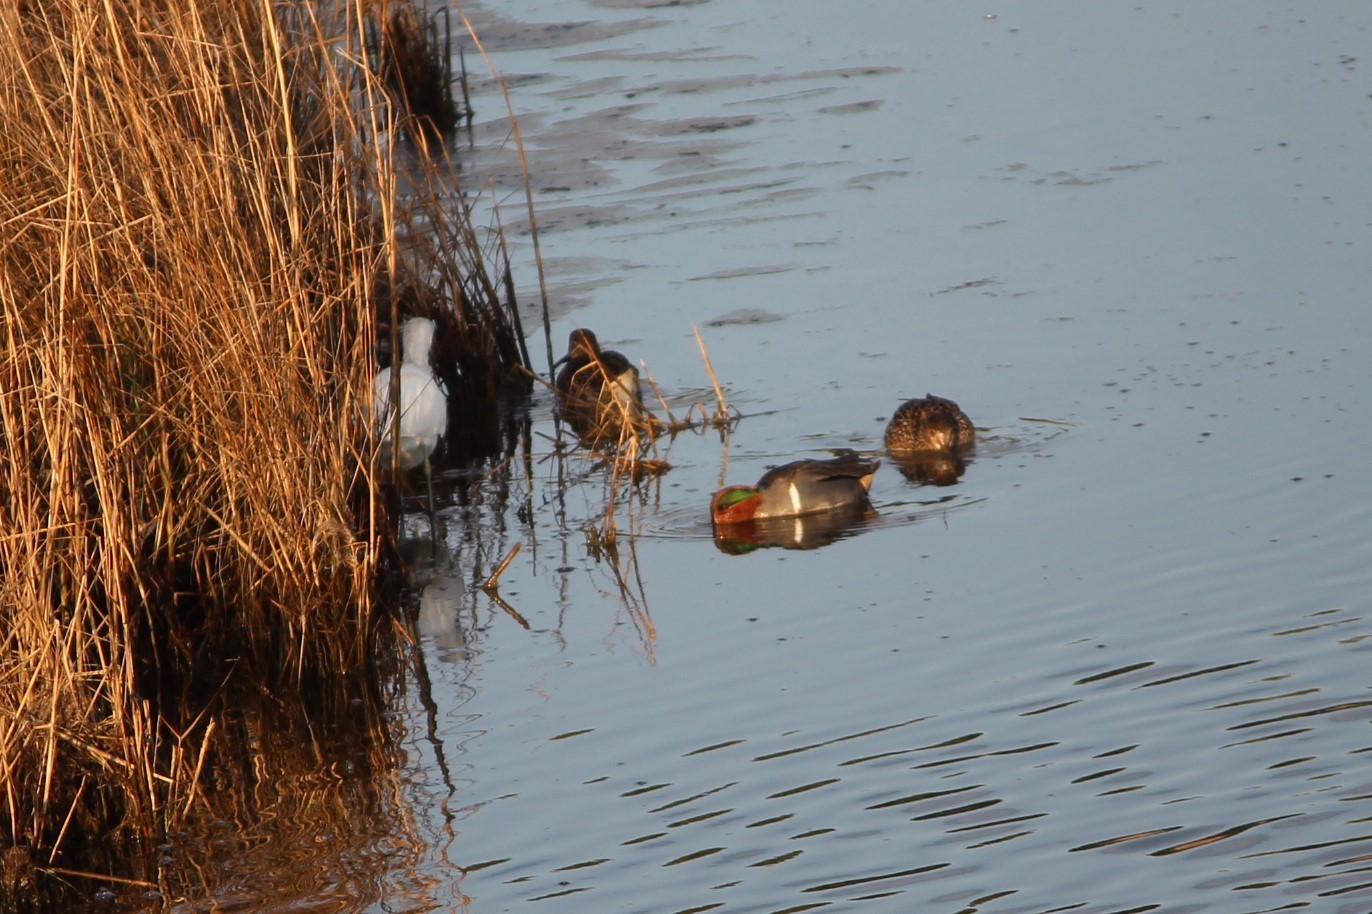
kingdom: Animalia
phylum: Chordata
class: Aves
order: Anseriformes
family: Anatidae
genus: Anas
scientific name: Anas crecca
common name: Eurasian teal
